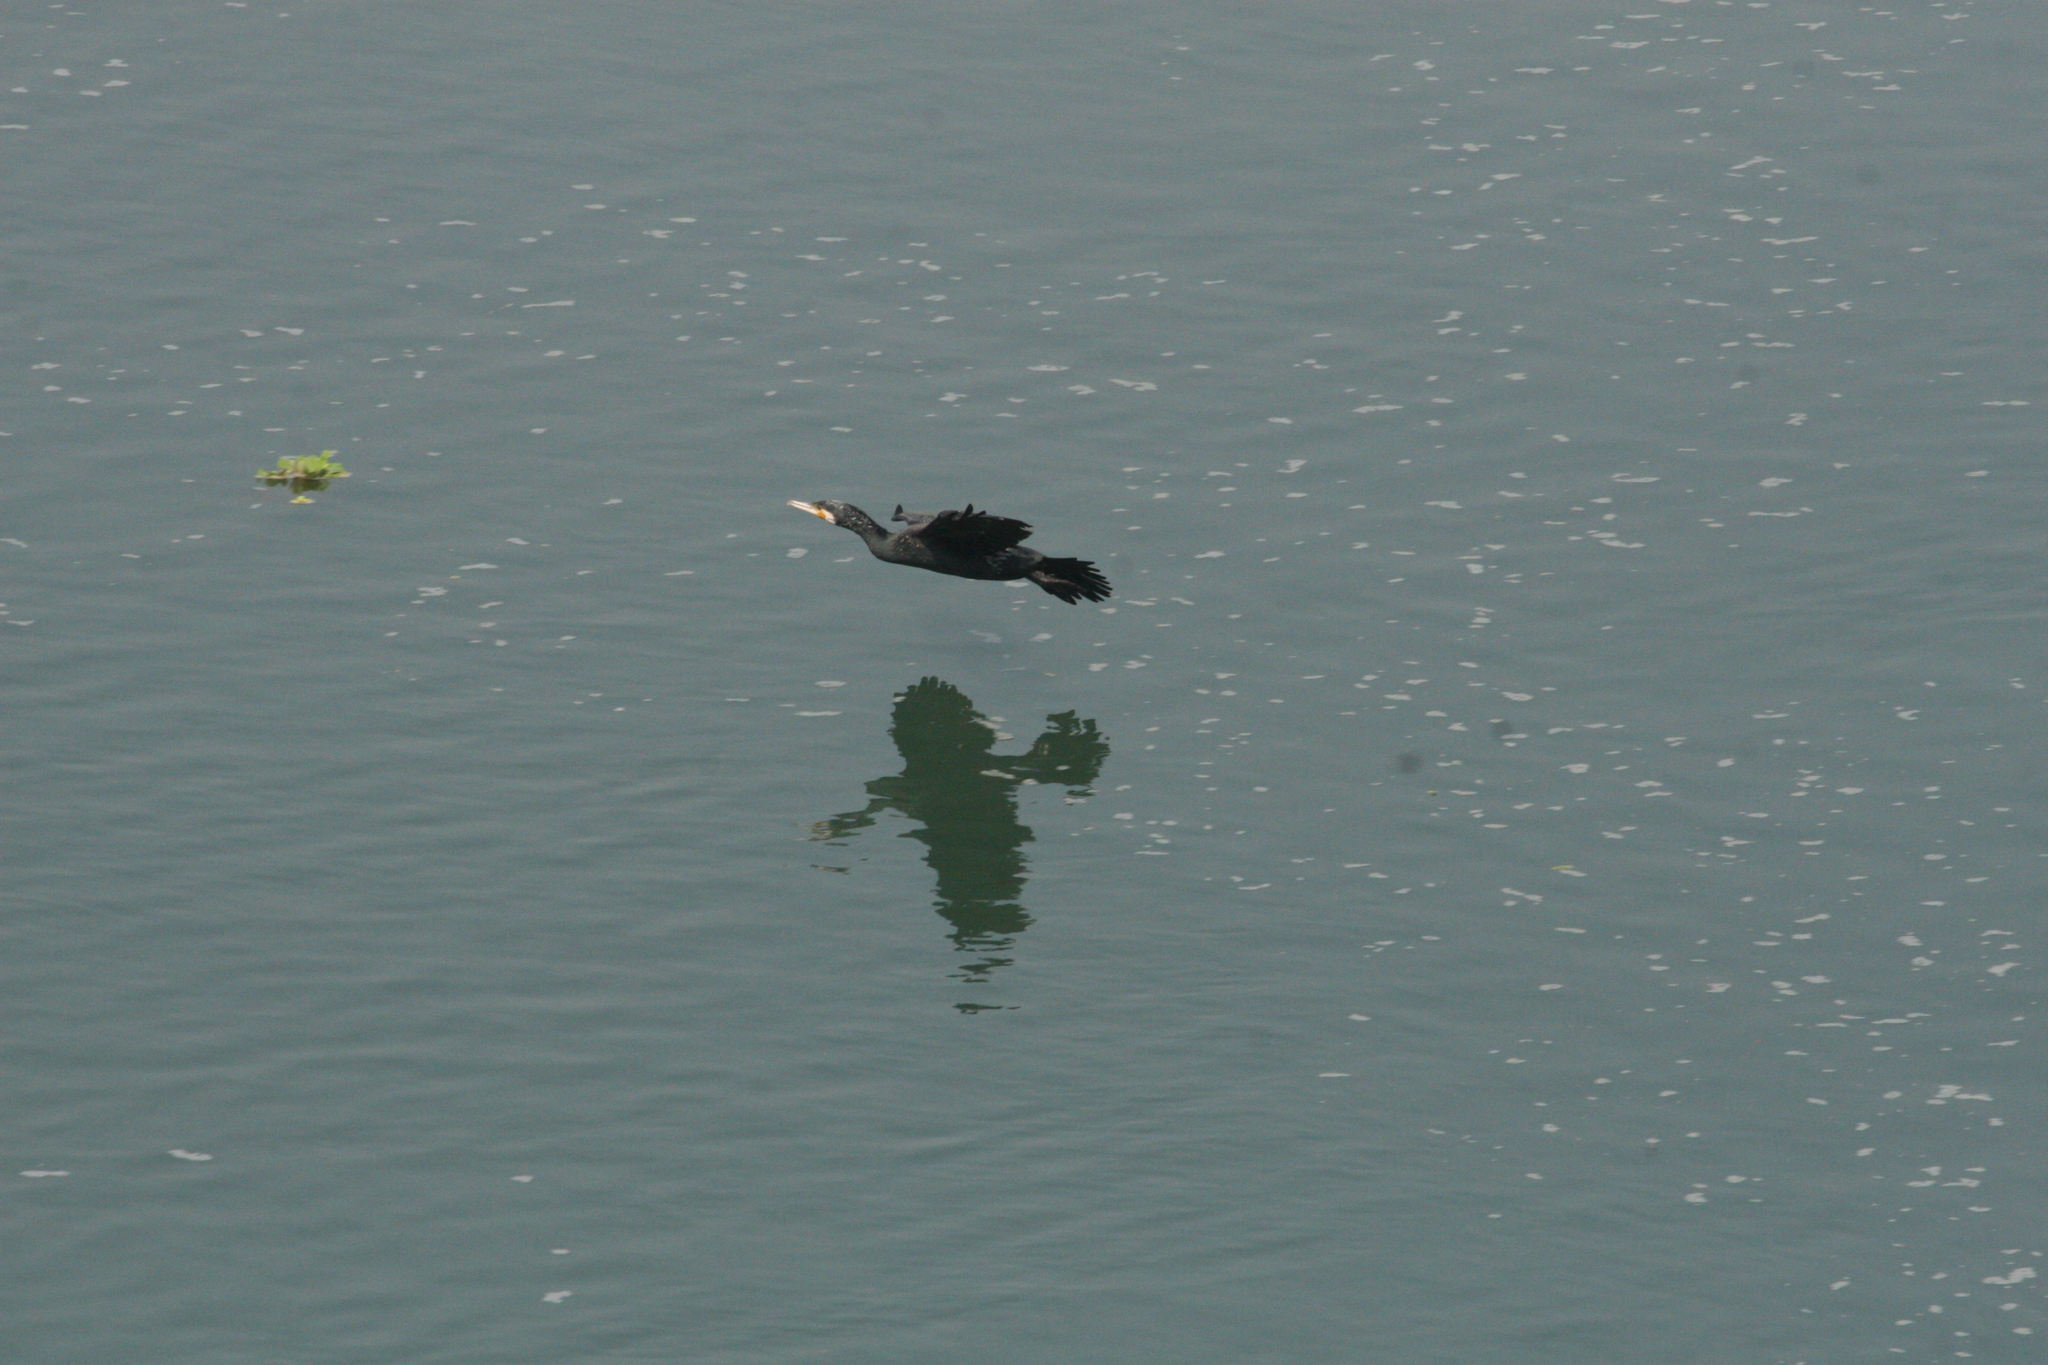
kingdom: Animalia
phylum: Chordata
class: Aves
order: Suliformes
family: Phalacrocoracidae
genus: Phalacrocorax
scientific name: Phalacrocorax carbo
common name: Great cormorant
